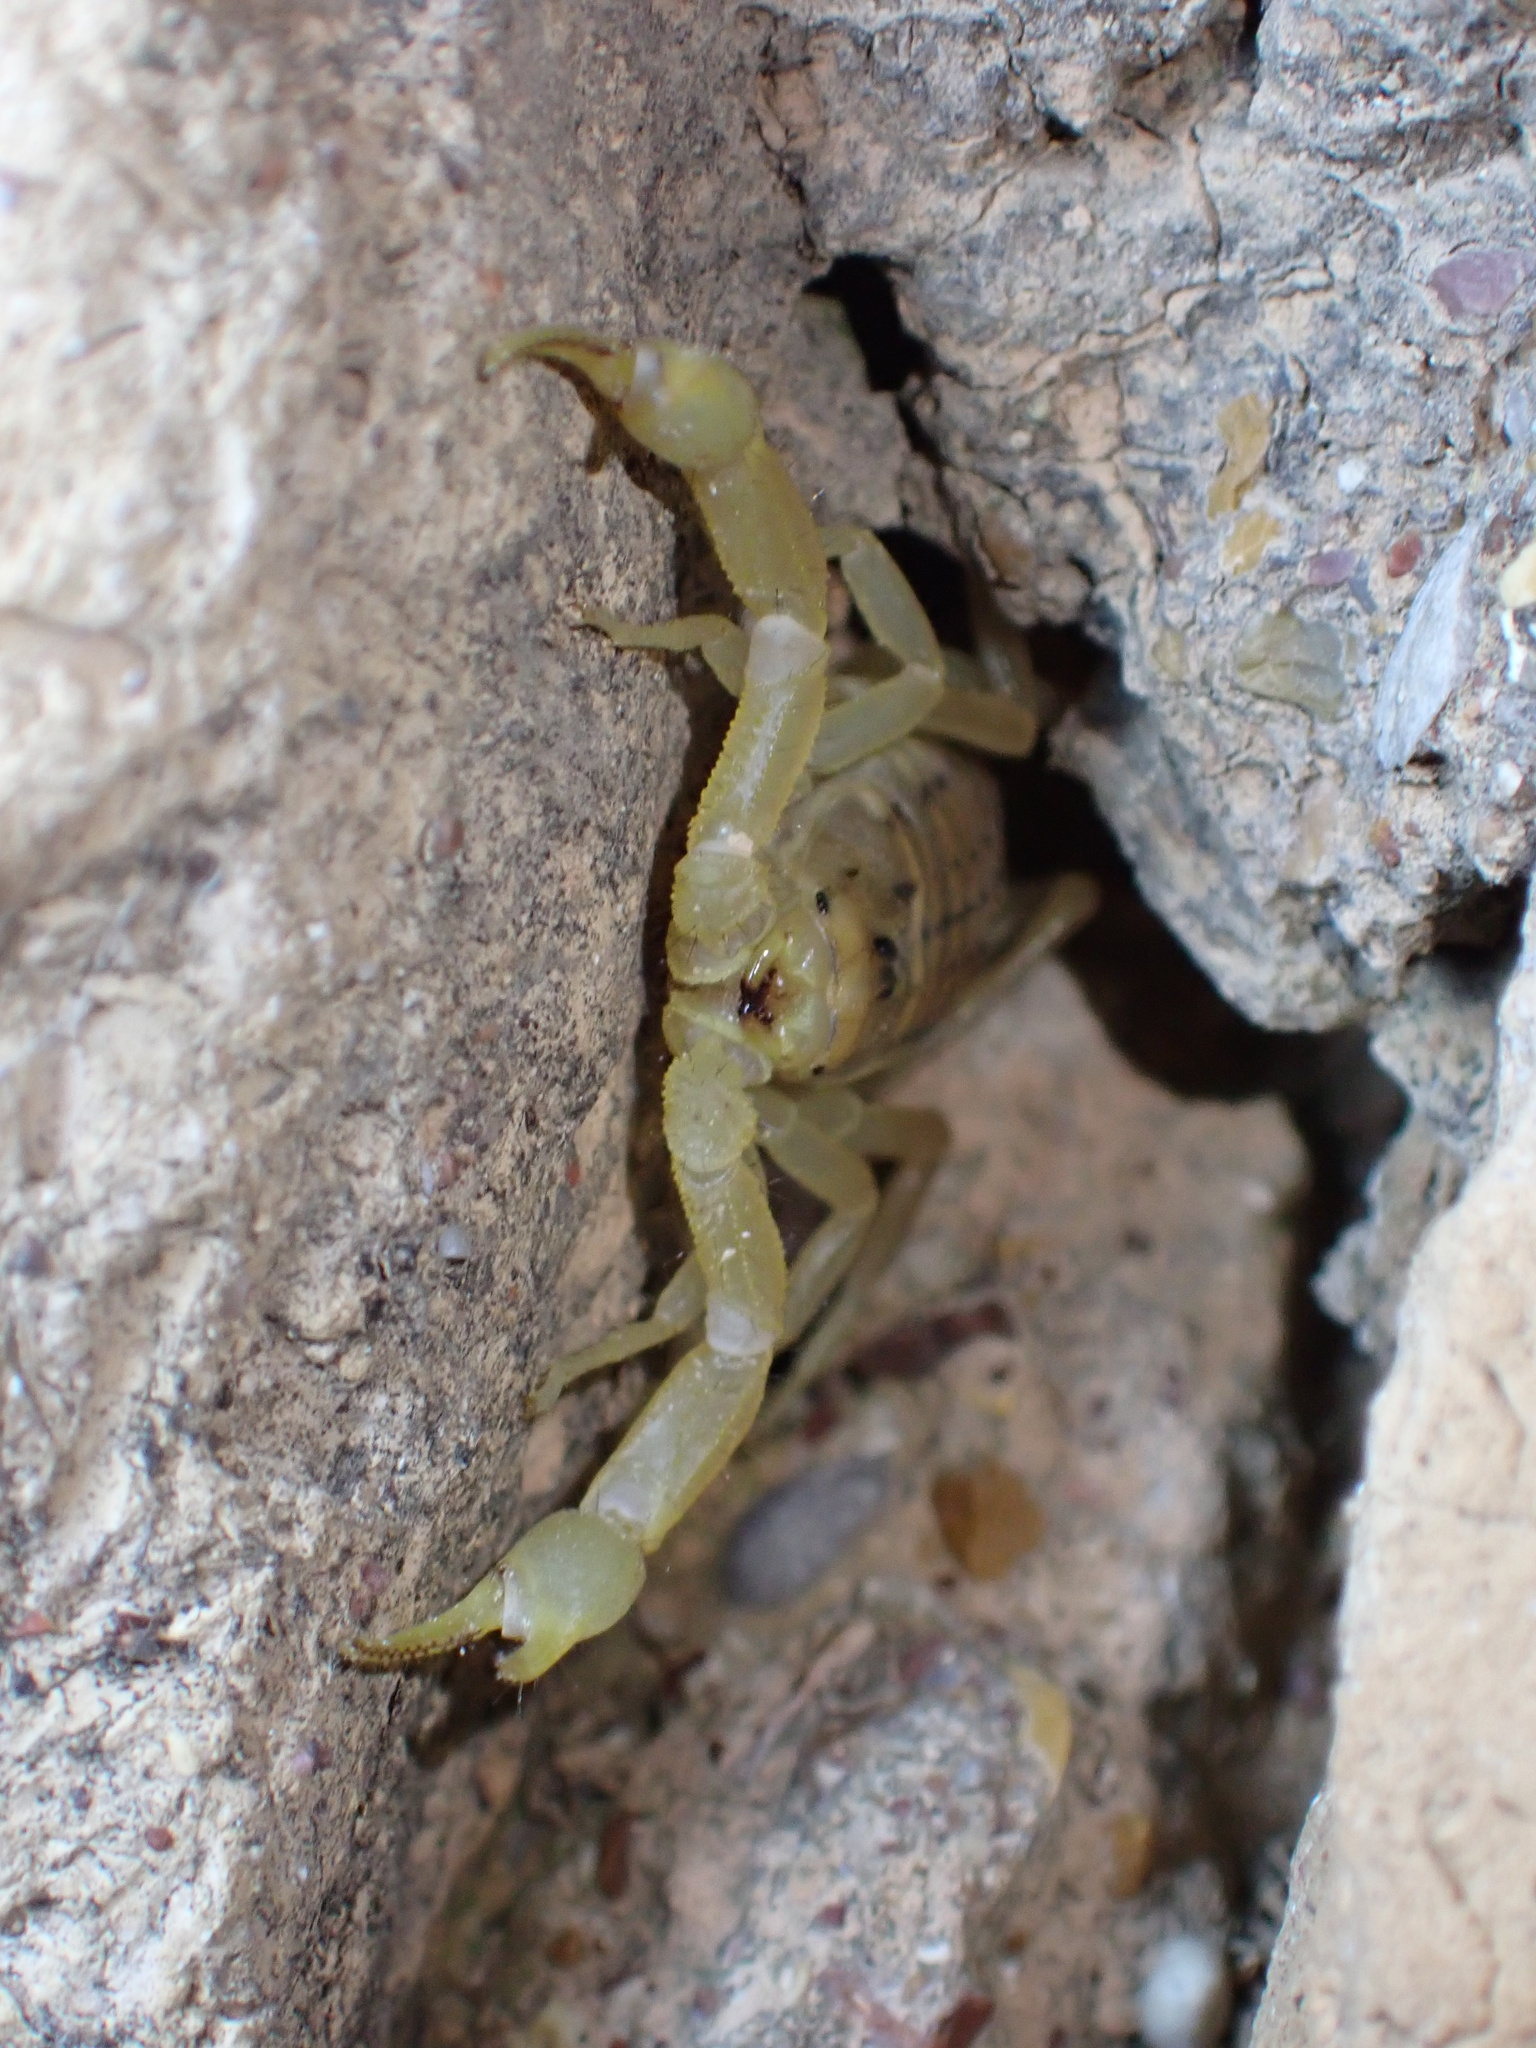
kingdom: Animalia
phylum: Arthropoda
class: Arachnida
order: Scorpiones
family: Buthidae
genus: Mesobuthus
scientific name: Mesobuthus crucittii
